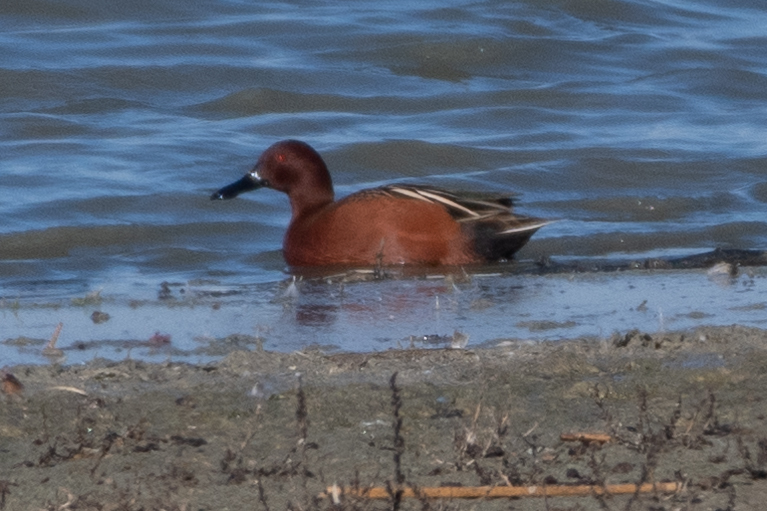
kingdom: Animalia
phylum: Chordata
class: Aves
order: Anseriformes
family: Anatidae
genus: Spatula
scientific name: Spatula cyanoptera
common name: Cinnamon teal
